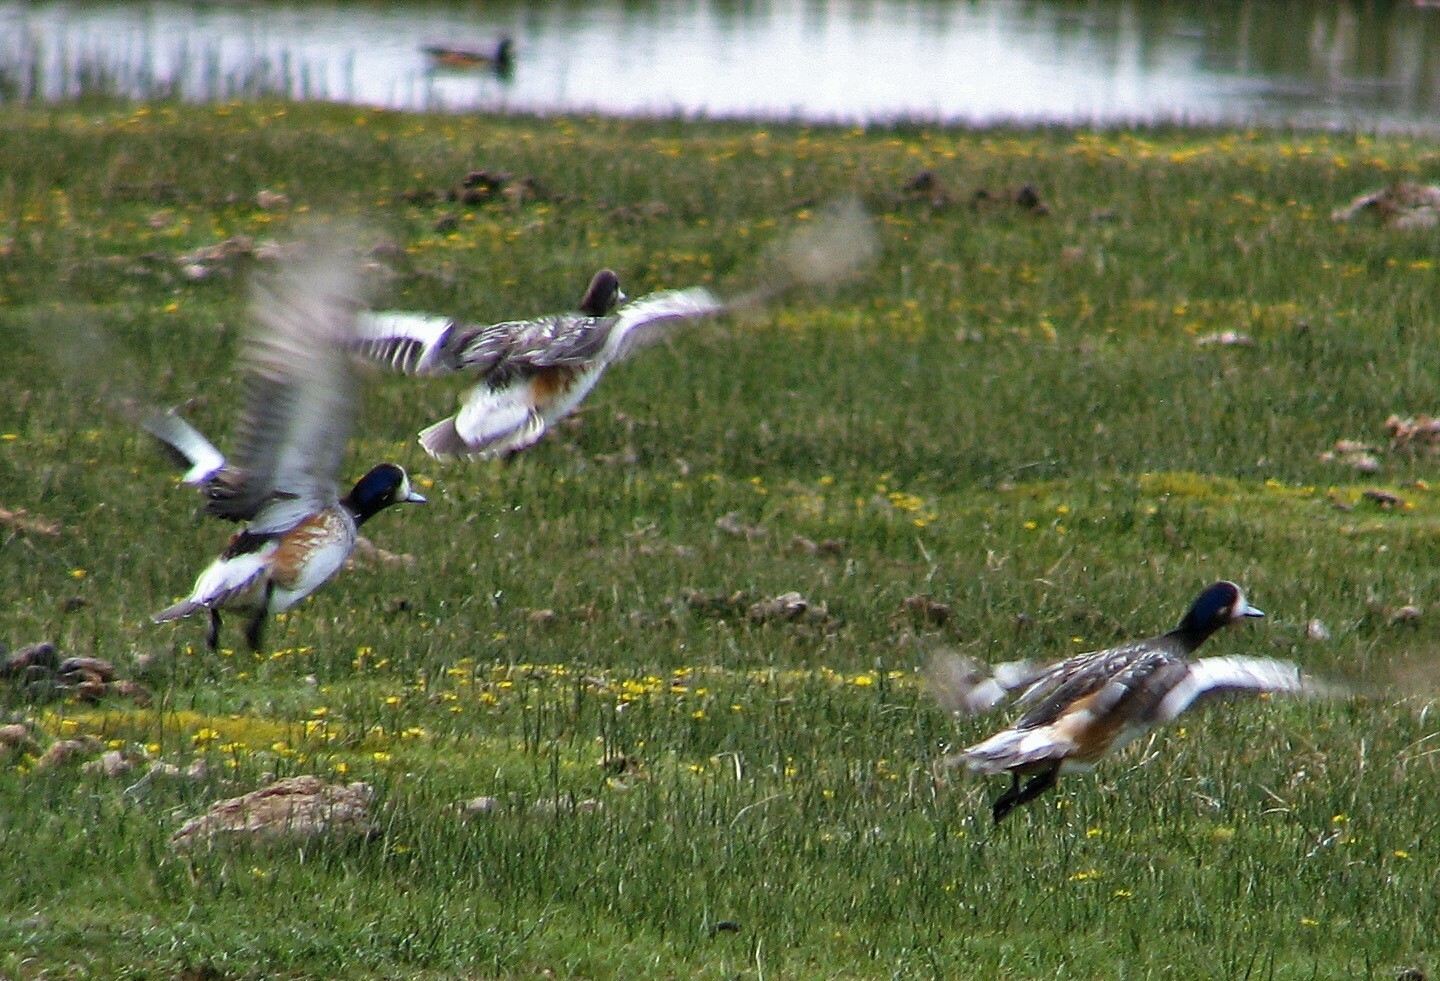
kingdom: Animalia
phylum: Chordata
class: Aves
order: Anseriformes
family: Anatidae
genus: Mareca
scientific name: Mareca sibilatrix
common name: Chiloe wigeon
